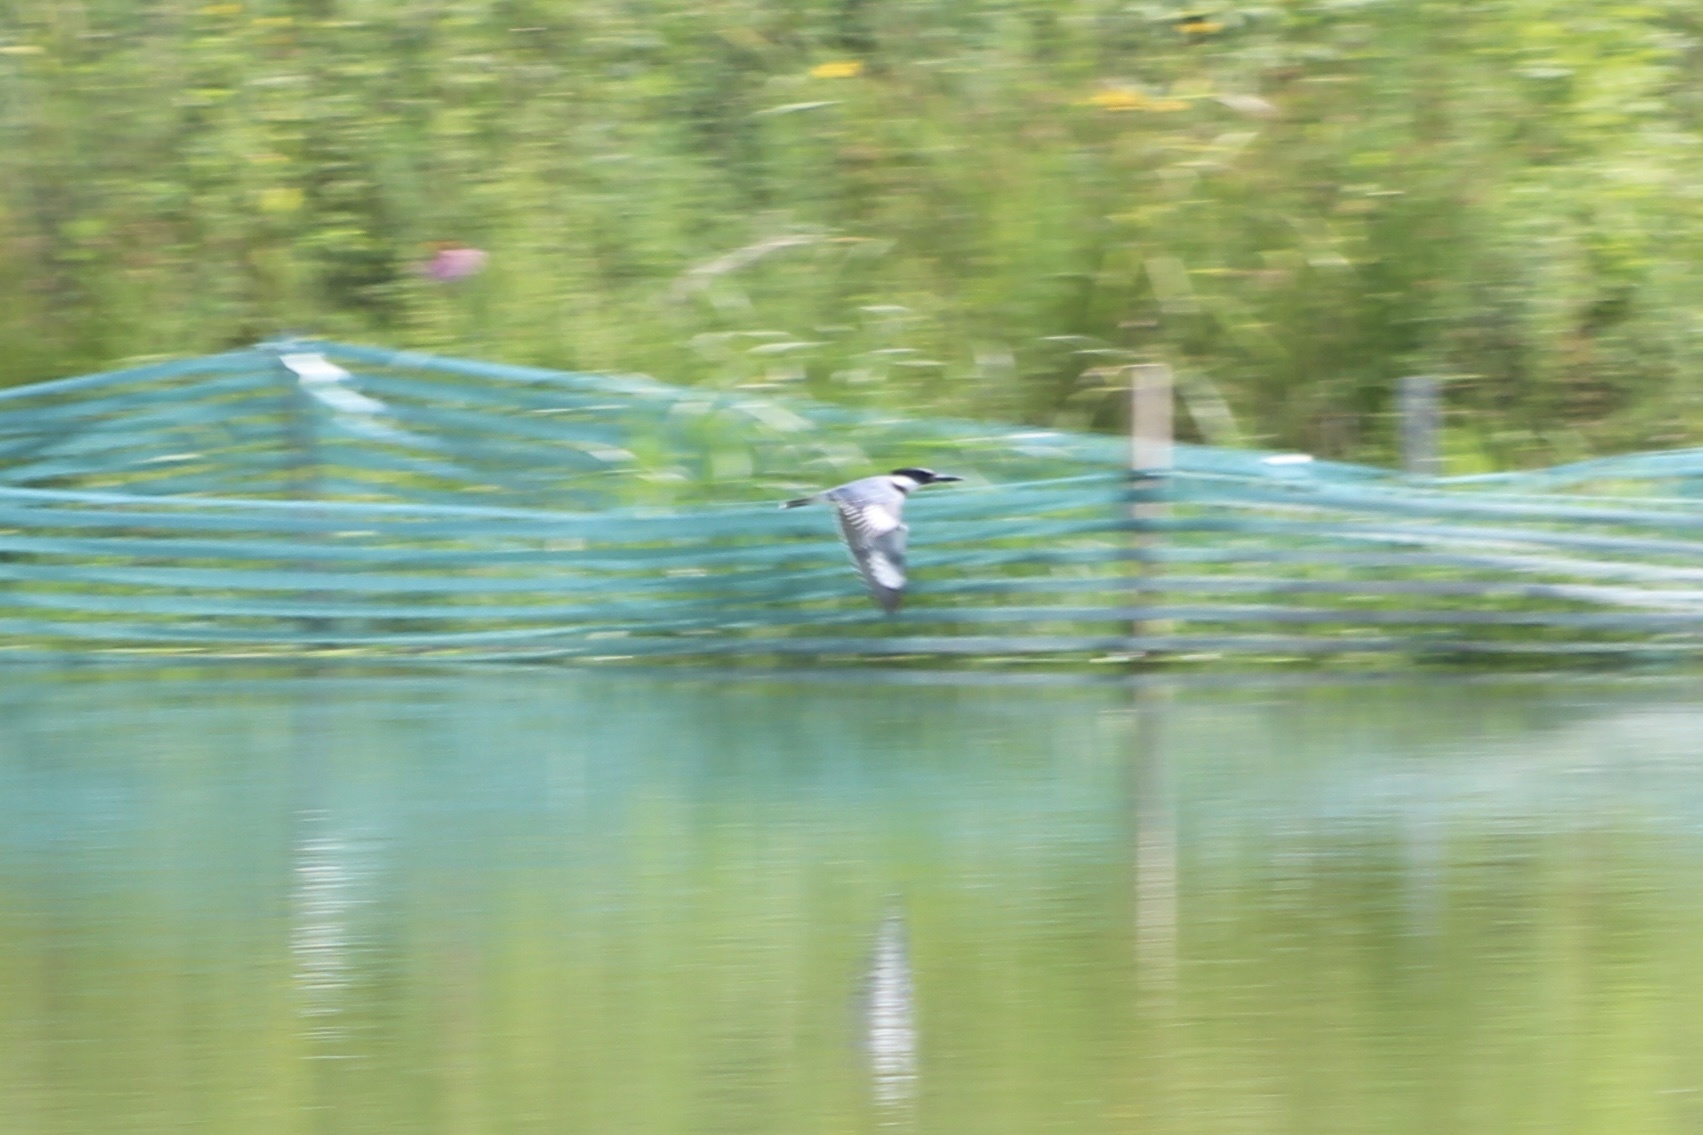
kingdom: Animalia
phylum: Chordata
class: Aves
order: Coraciiformes
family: Alcedinidae
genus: Megaceryle
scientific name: Megaceryle alcyon
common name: Belted kingfisher
